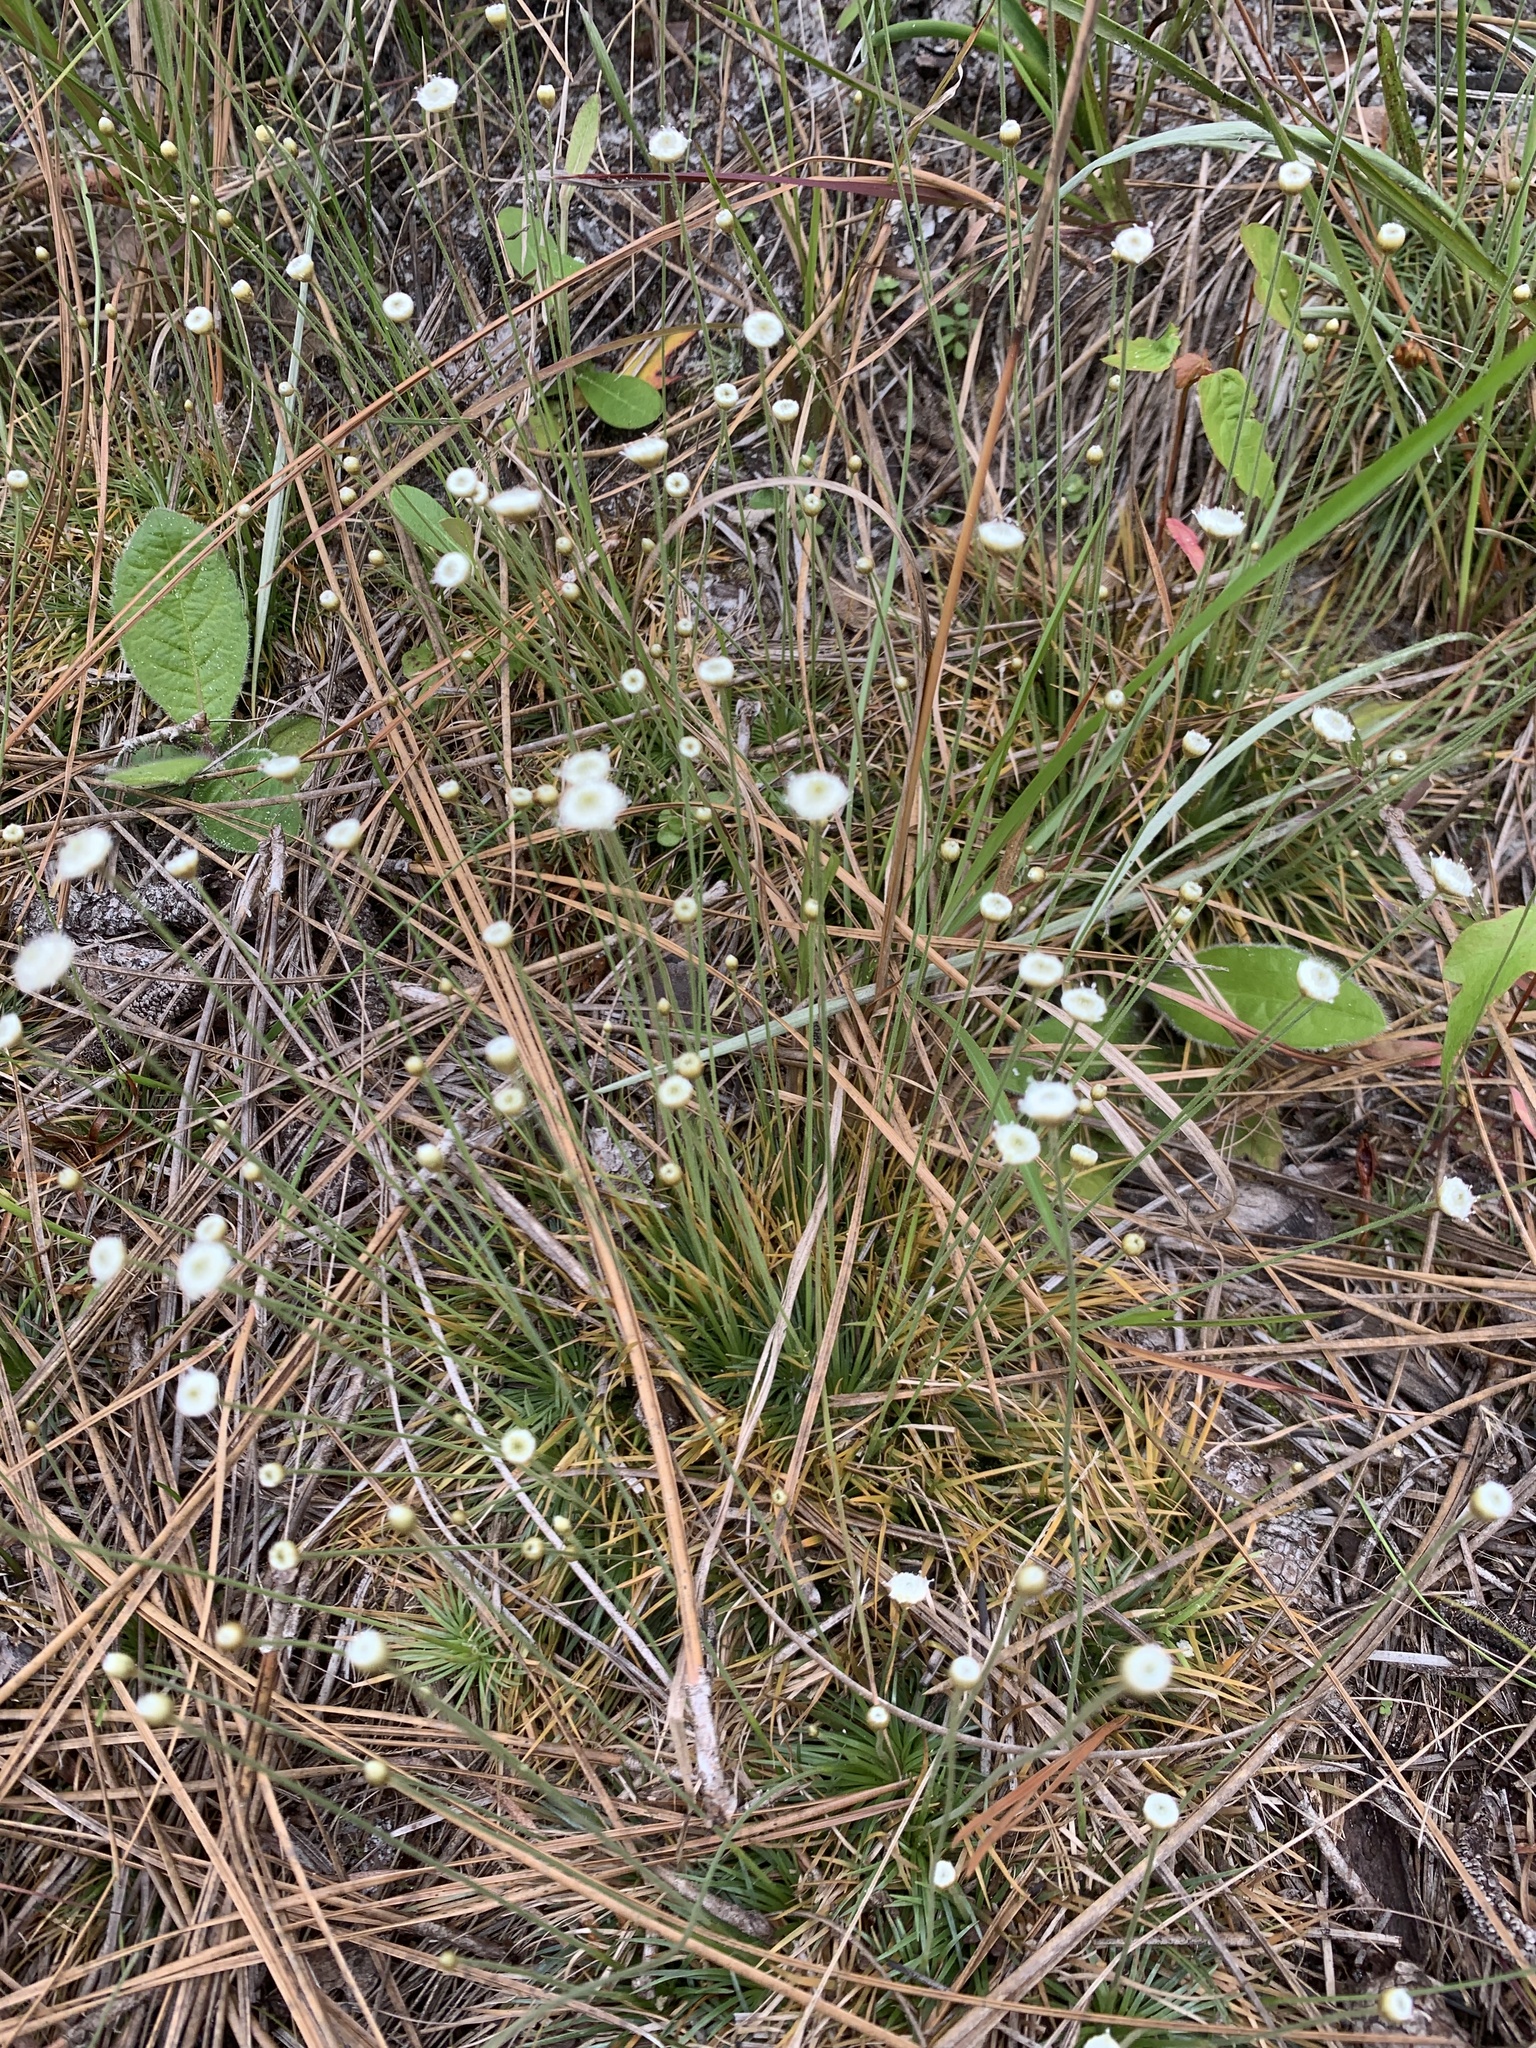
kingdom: Plantae
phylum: Tracheophyta
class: Liliopsida
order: Poales
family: Eriocaulaceae
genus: Syngonanthus
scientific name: Syngonanthus flavidulus
